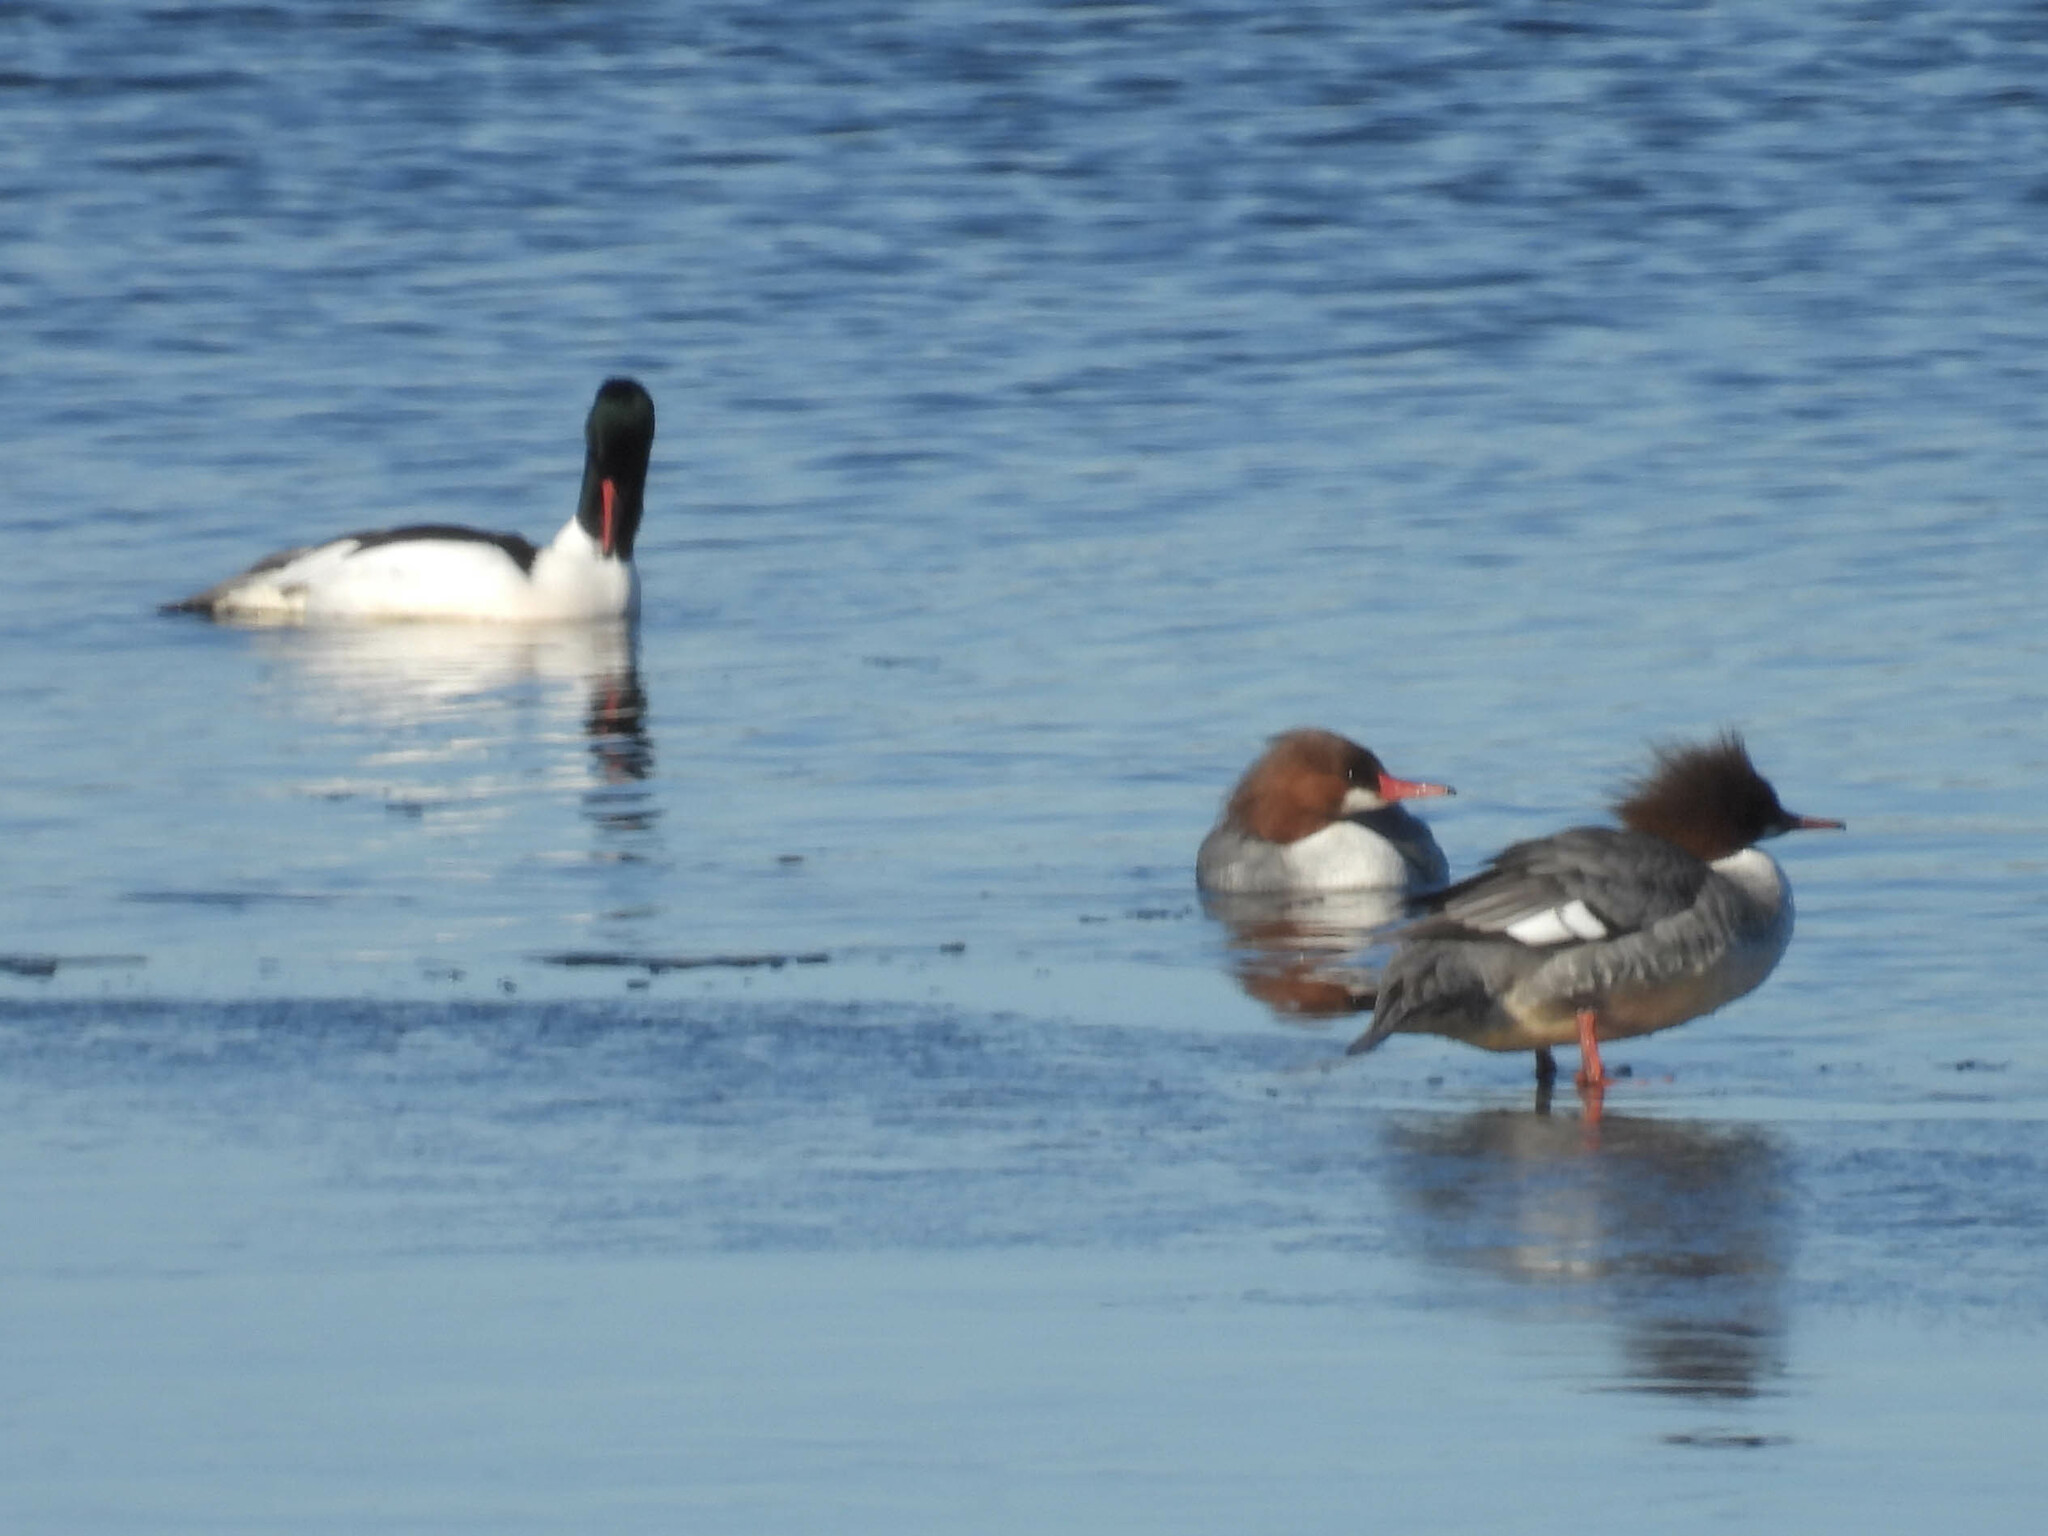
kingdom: Animalia
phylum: Chordata
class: Aves
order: Anseriformes
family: Anatidae
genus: Mergus
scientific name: Mergus merganser
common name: Common merganser
